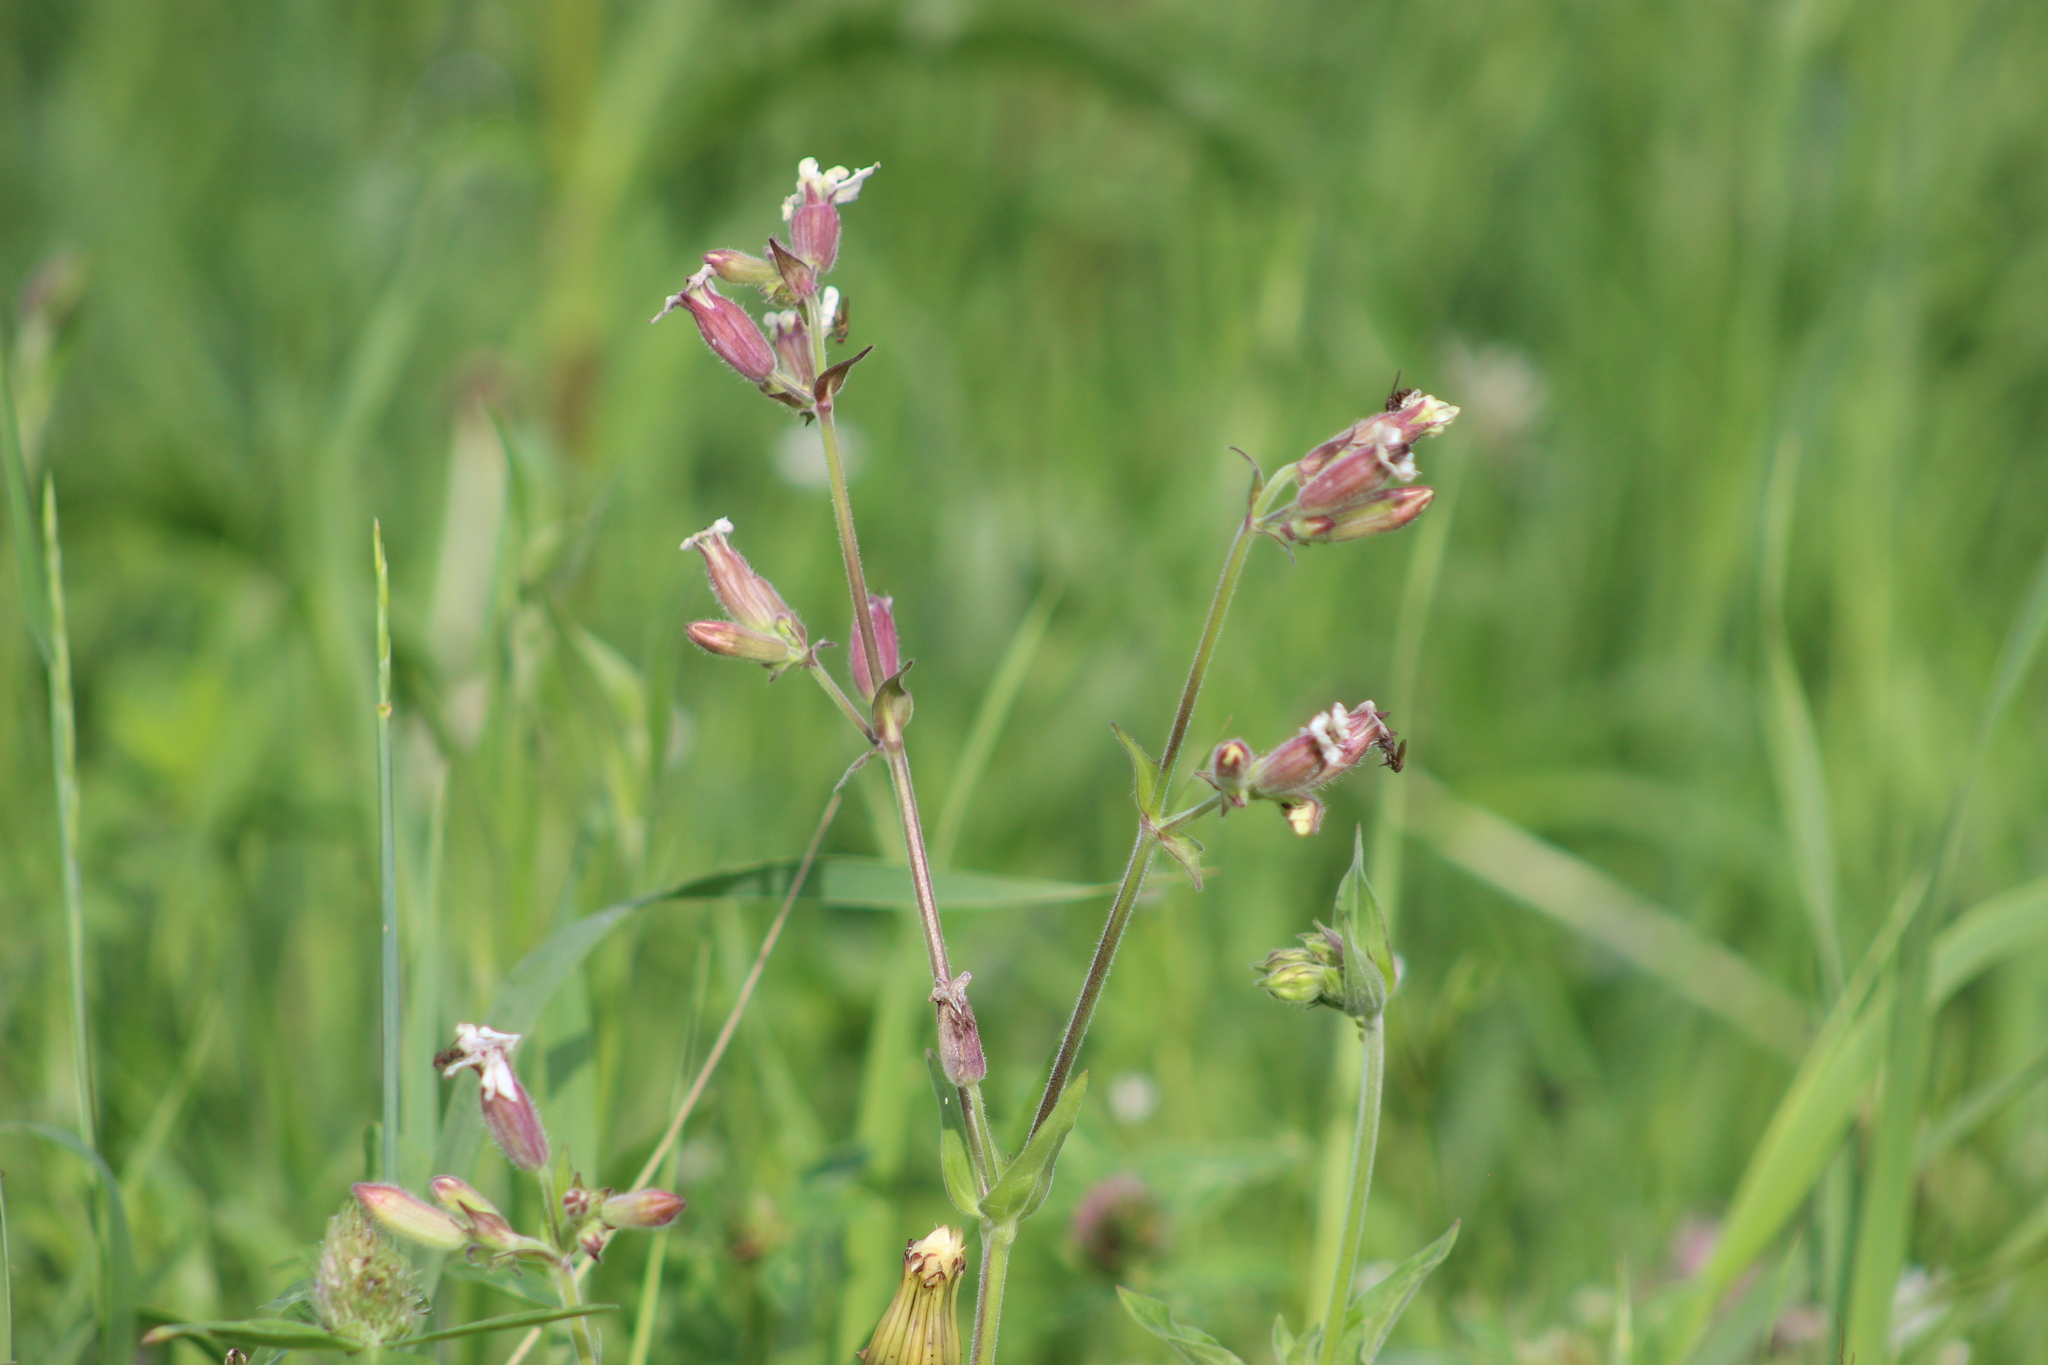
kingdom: Plantae
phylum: Tracheophyta
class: Magnoliopsida
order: Caryophyllales
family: Caryophyllaceae
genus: Silene
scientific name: Silene latifolia
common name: White campion
